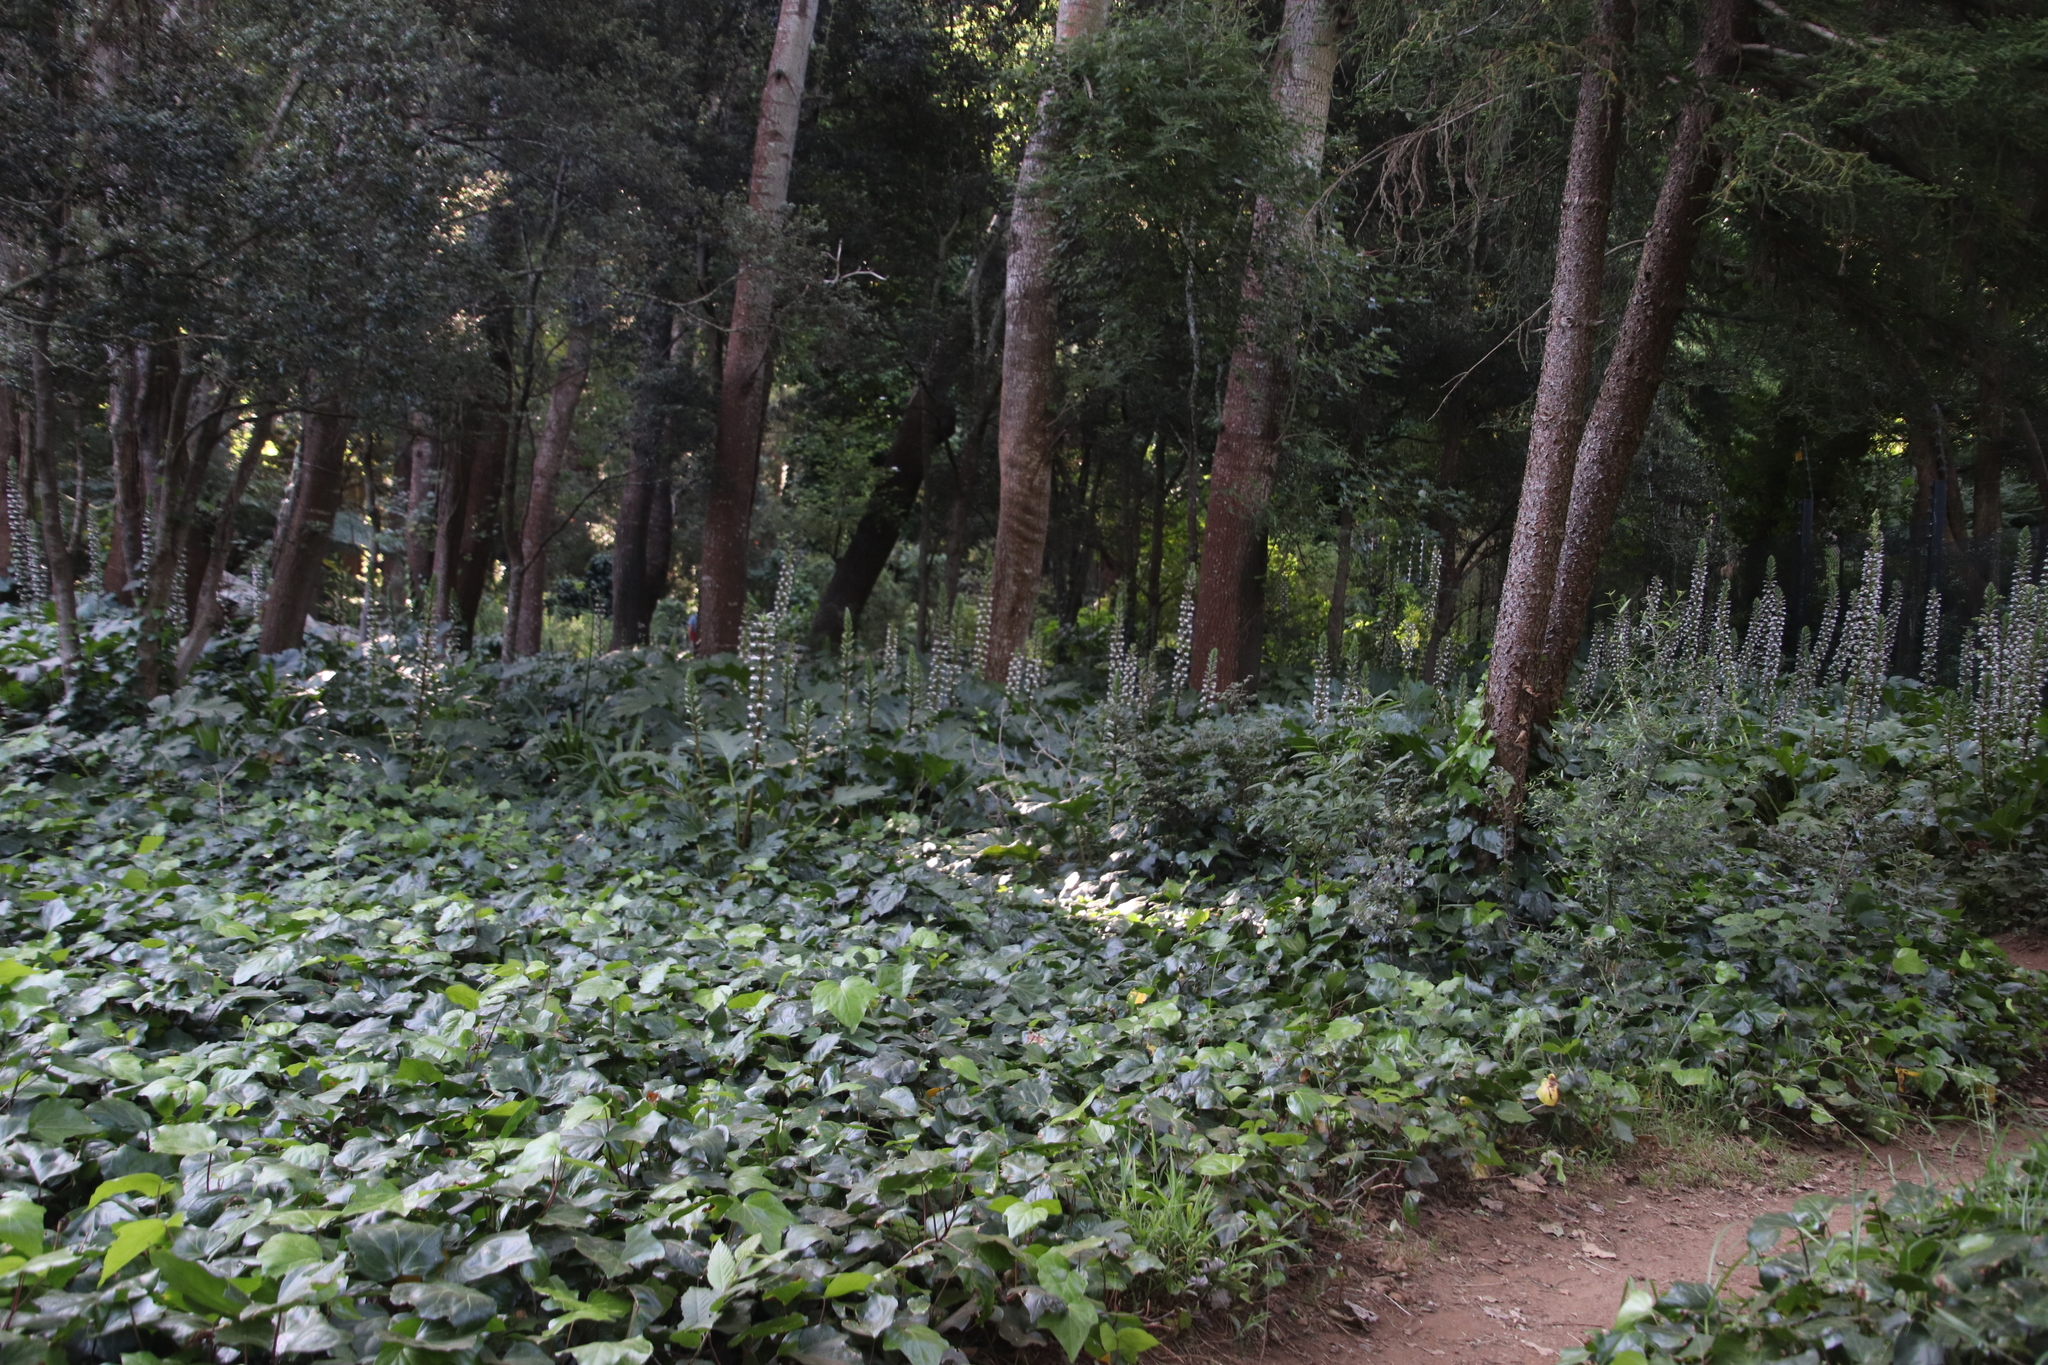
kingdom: Plantae
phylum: Tracheophyta
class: Magnoliopsida
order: Lamiales
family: Acanthaceae
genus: Acanthus
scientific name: Acanthus mollis
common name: Bear's-breech
